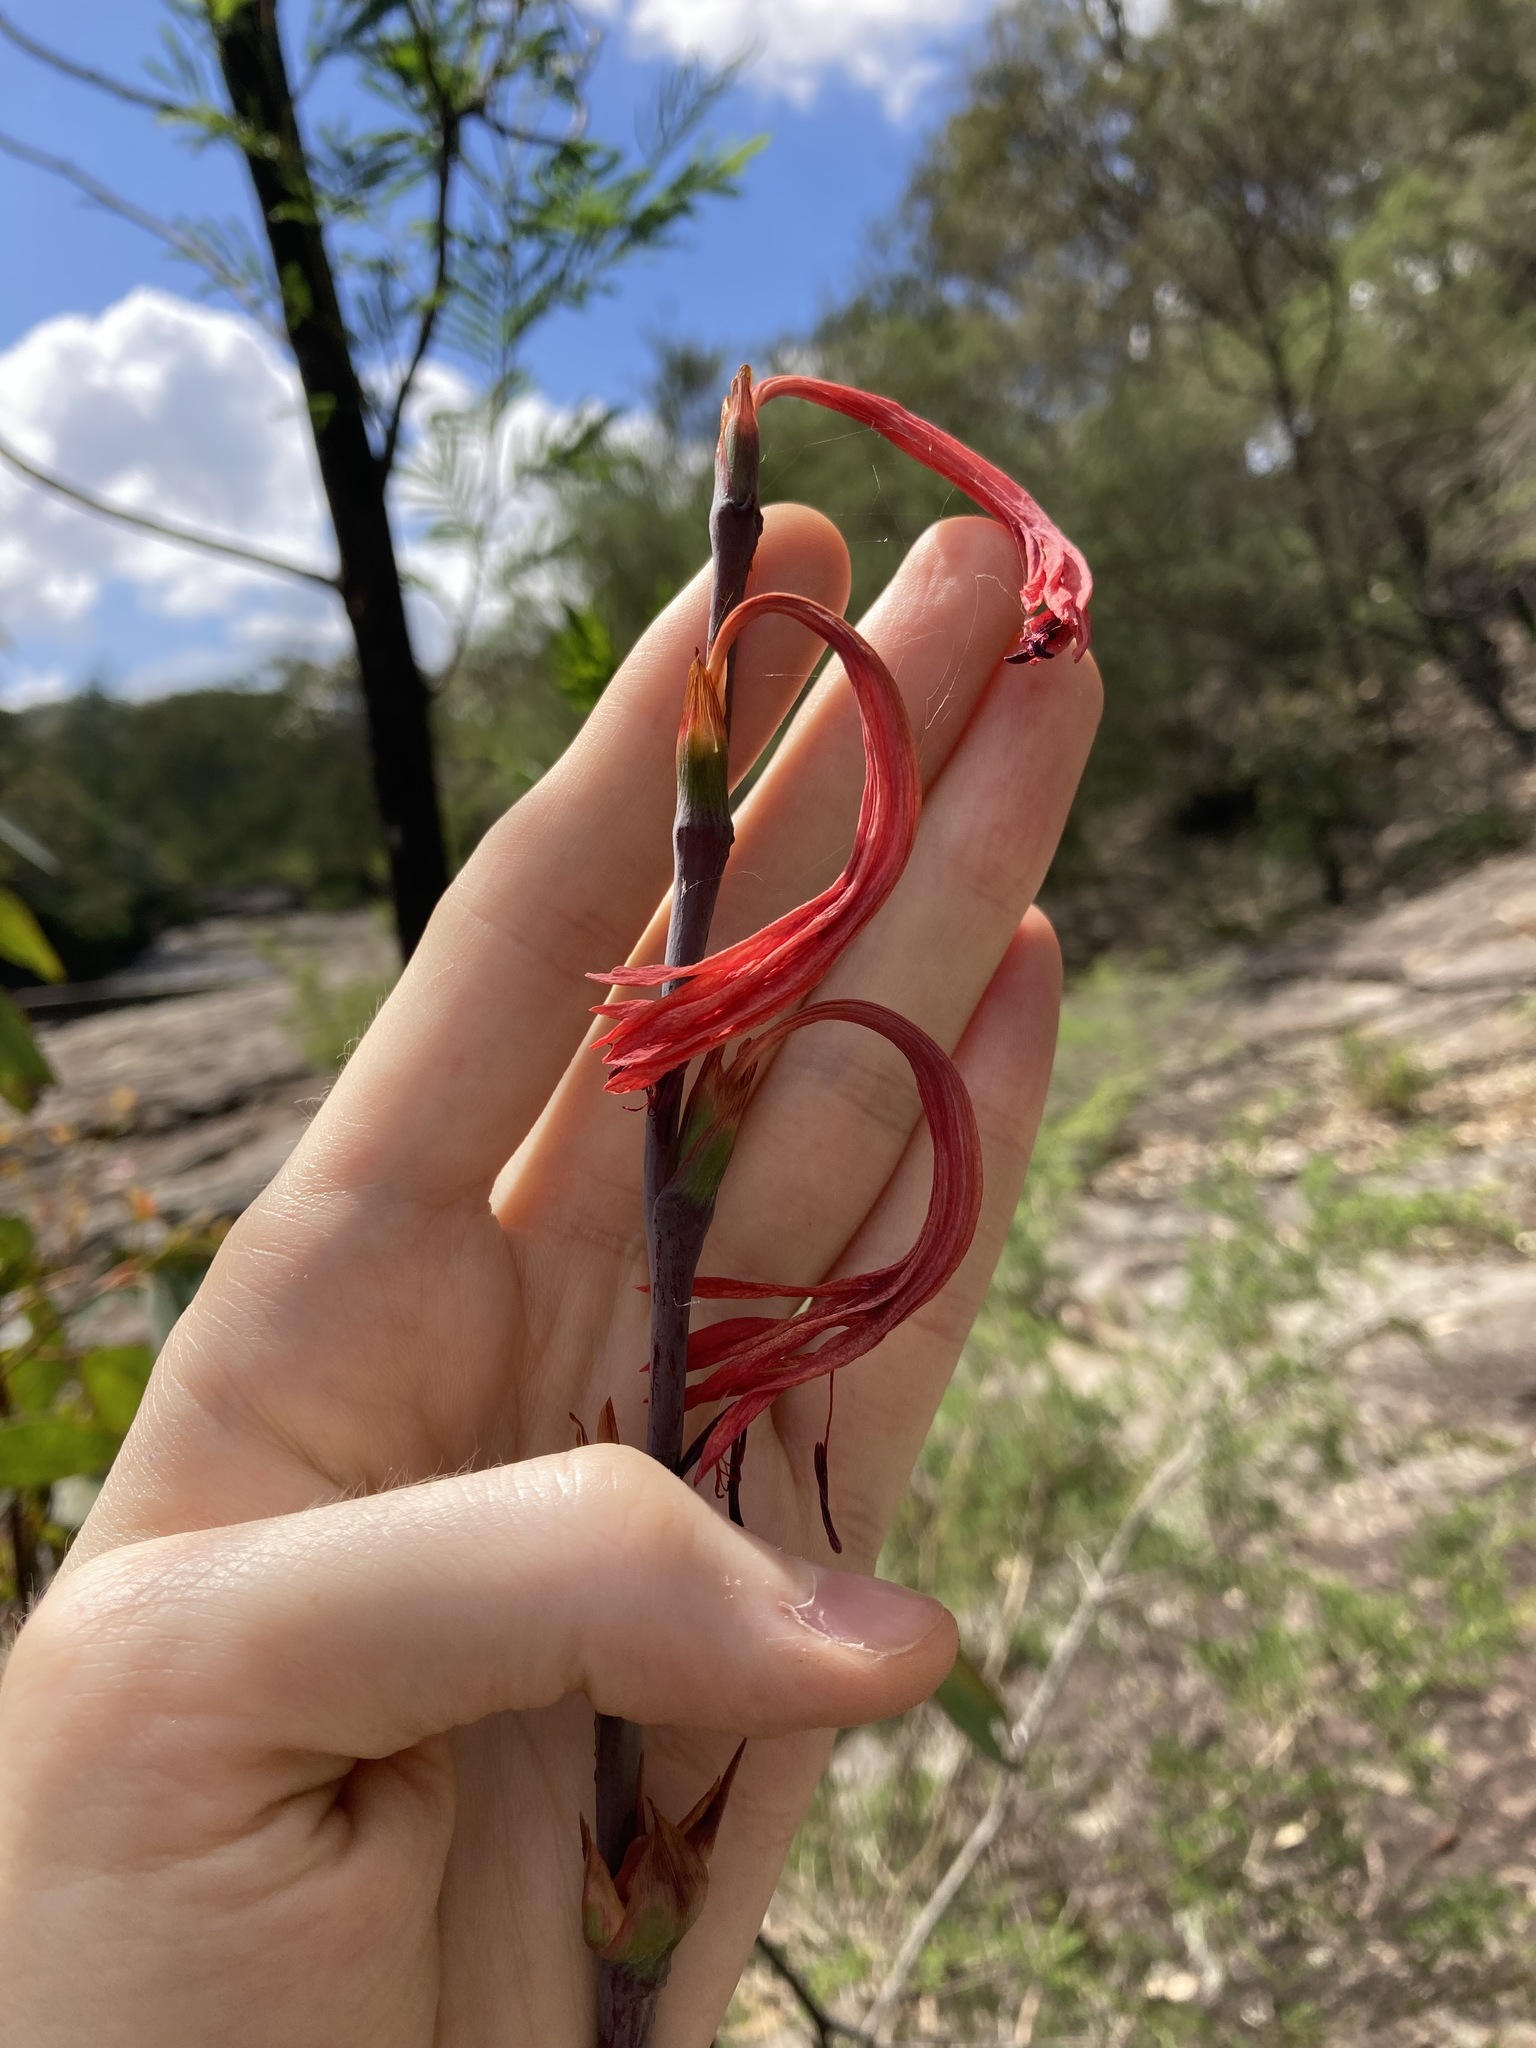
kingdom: Plantae
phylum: Tracheophyta
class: Liliopsida
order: Asparagales
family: Iridaceae
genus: Watsonia
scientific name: Watsonia meriana
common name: Bulbil bugle-lily
